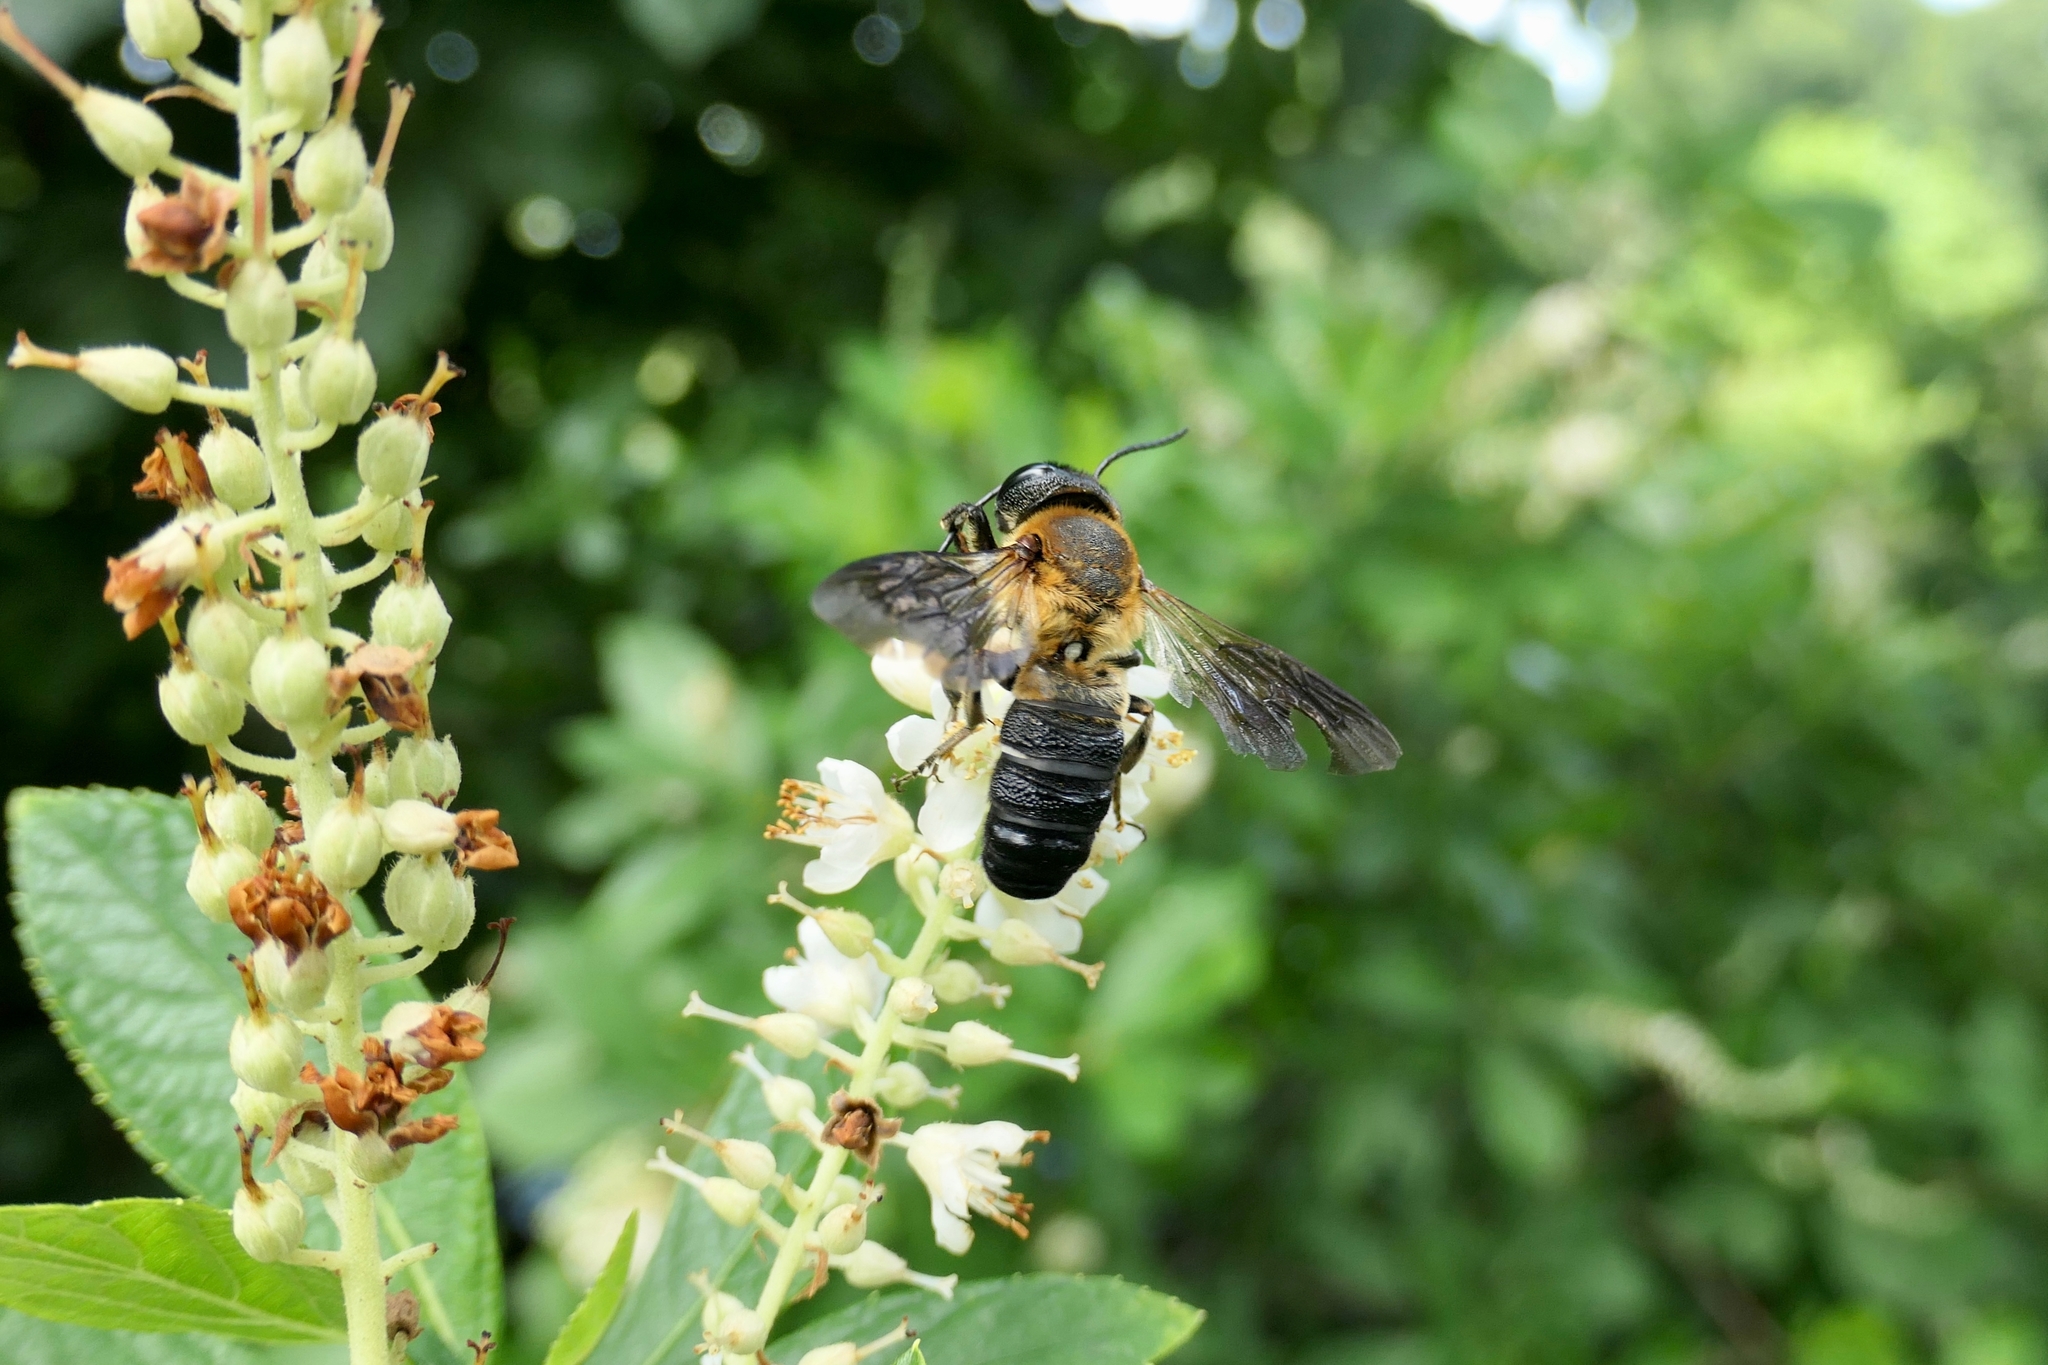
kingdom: Animalia
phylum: Arthropoda
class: Insecta
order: Hymenoptera
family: Megachilidae
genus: Megachile
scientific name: Megachile sculpturalis
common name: Sculptured resin bee
